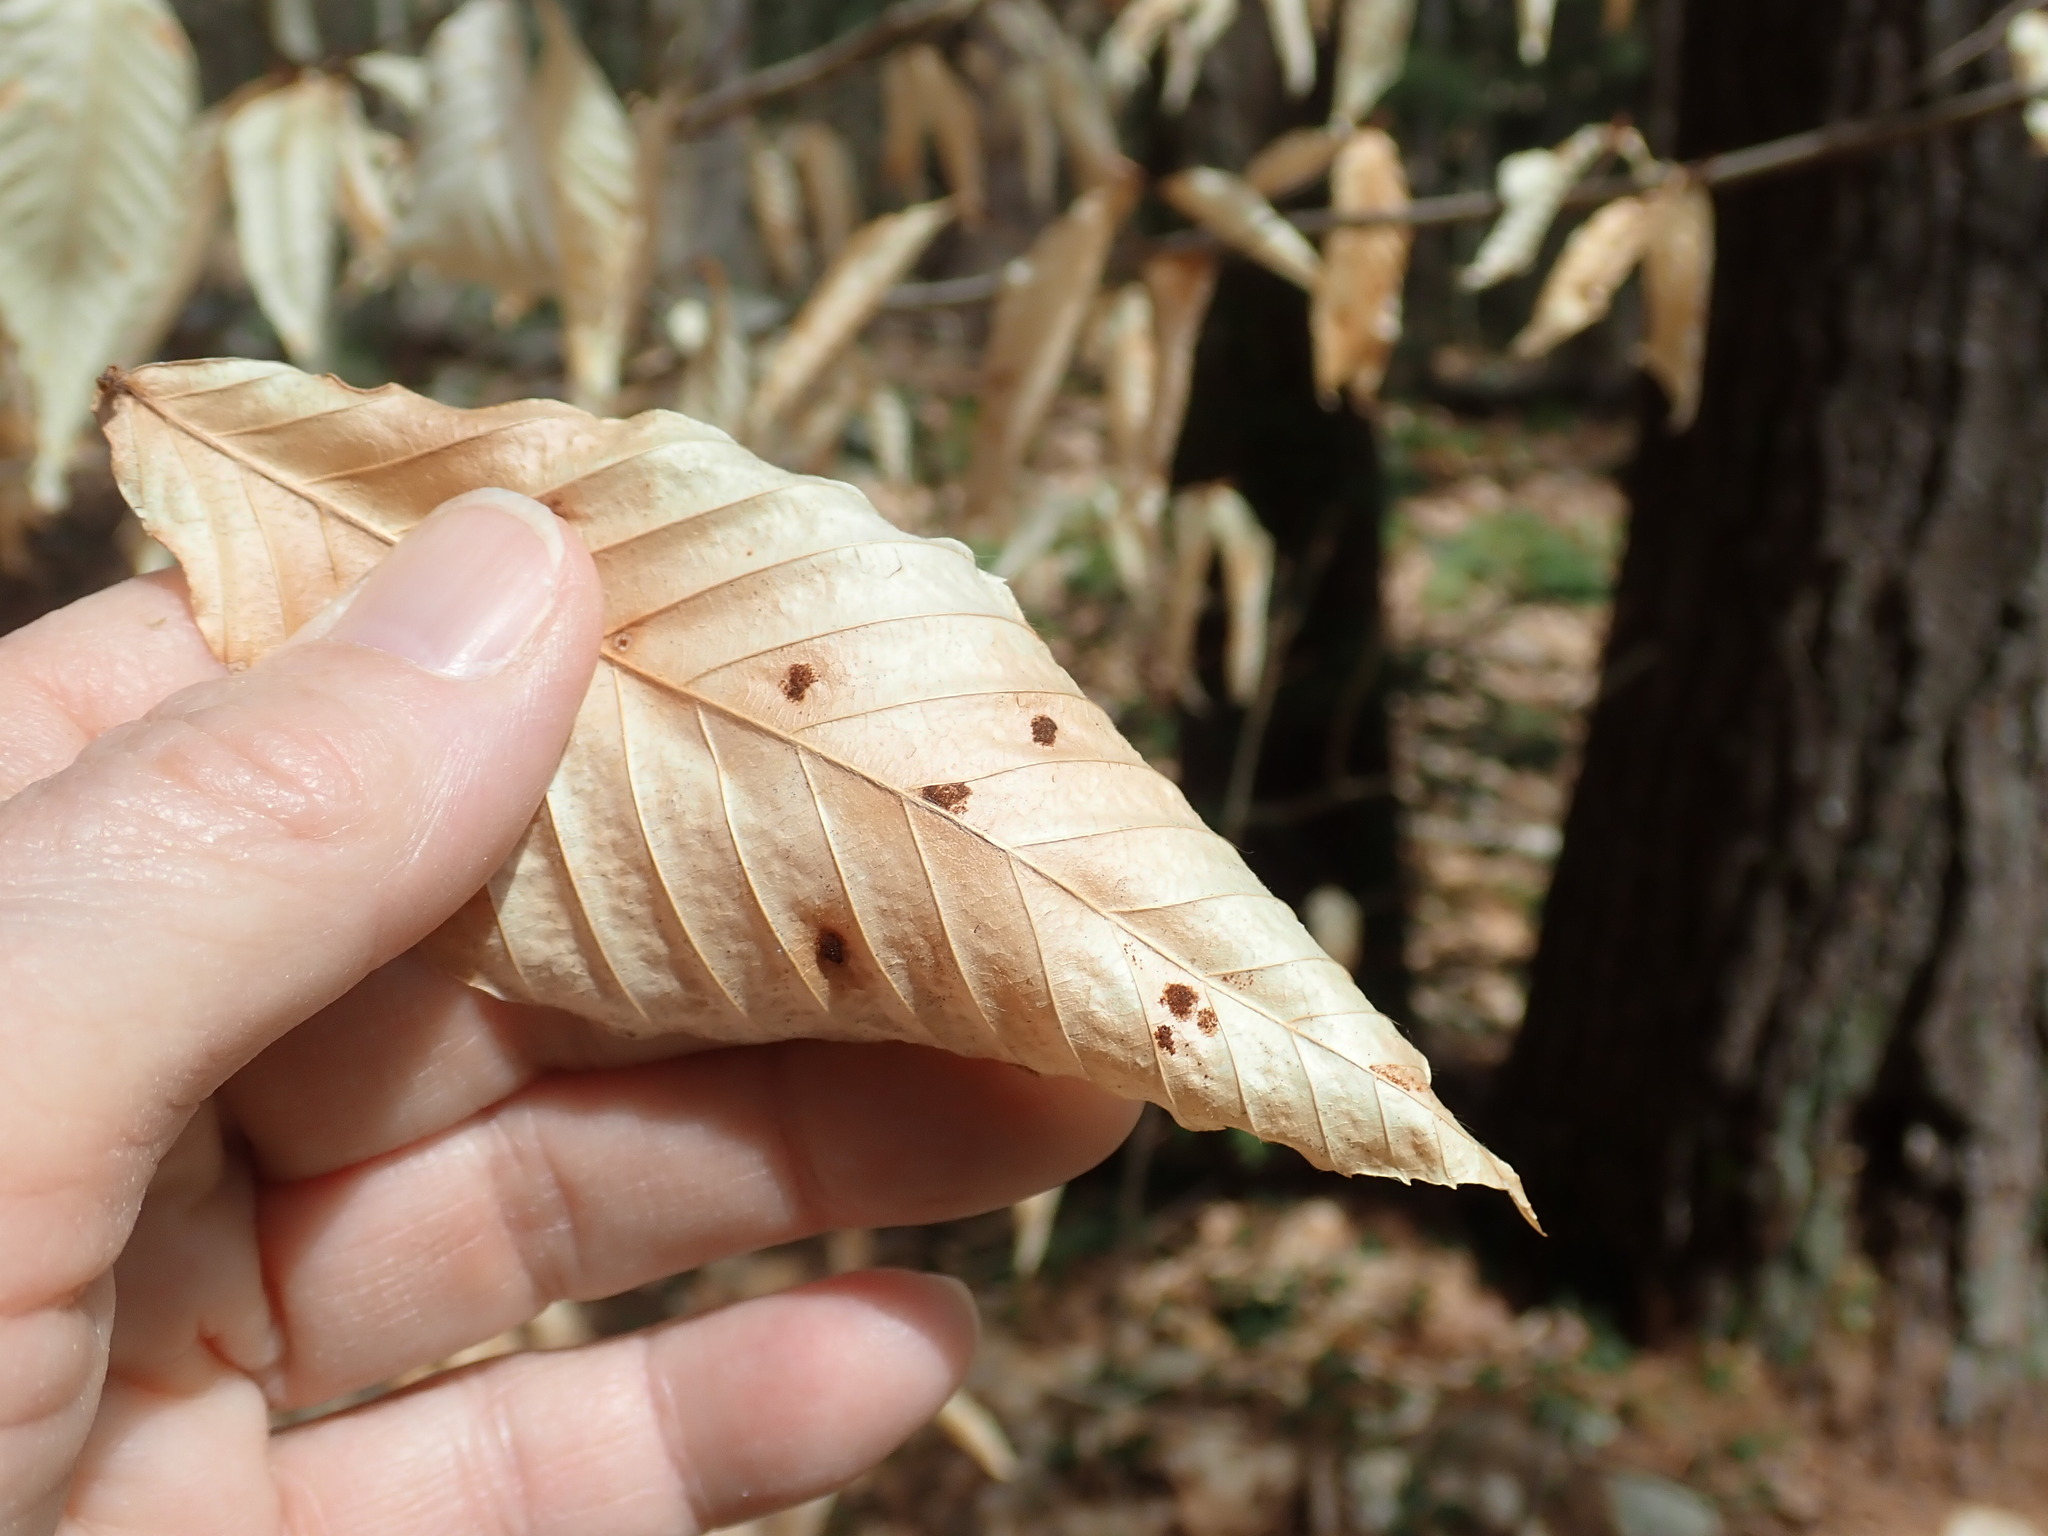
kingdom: Animalia
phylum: Arthropoda
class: Arachnida
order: Trombidiformes
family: Eriophyidae
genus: Acalitus
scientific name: Acalitus
